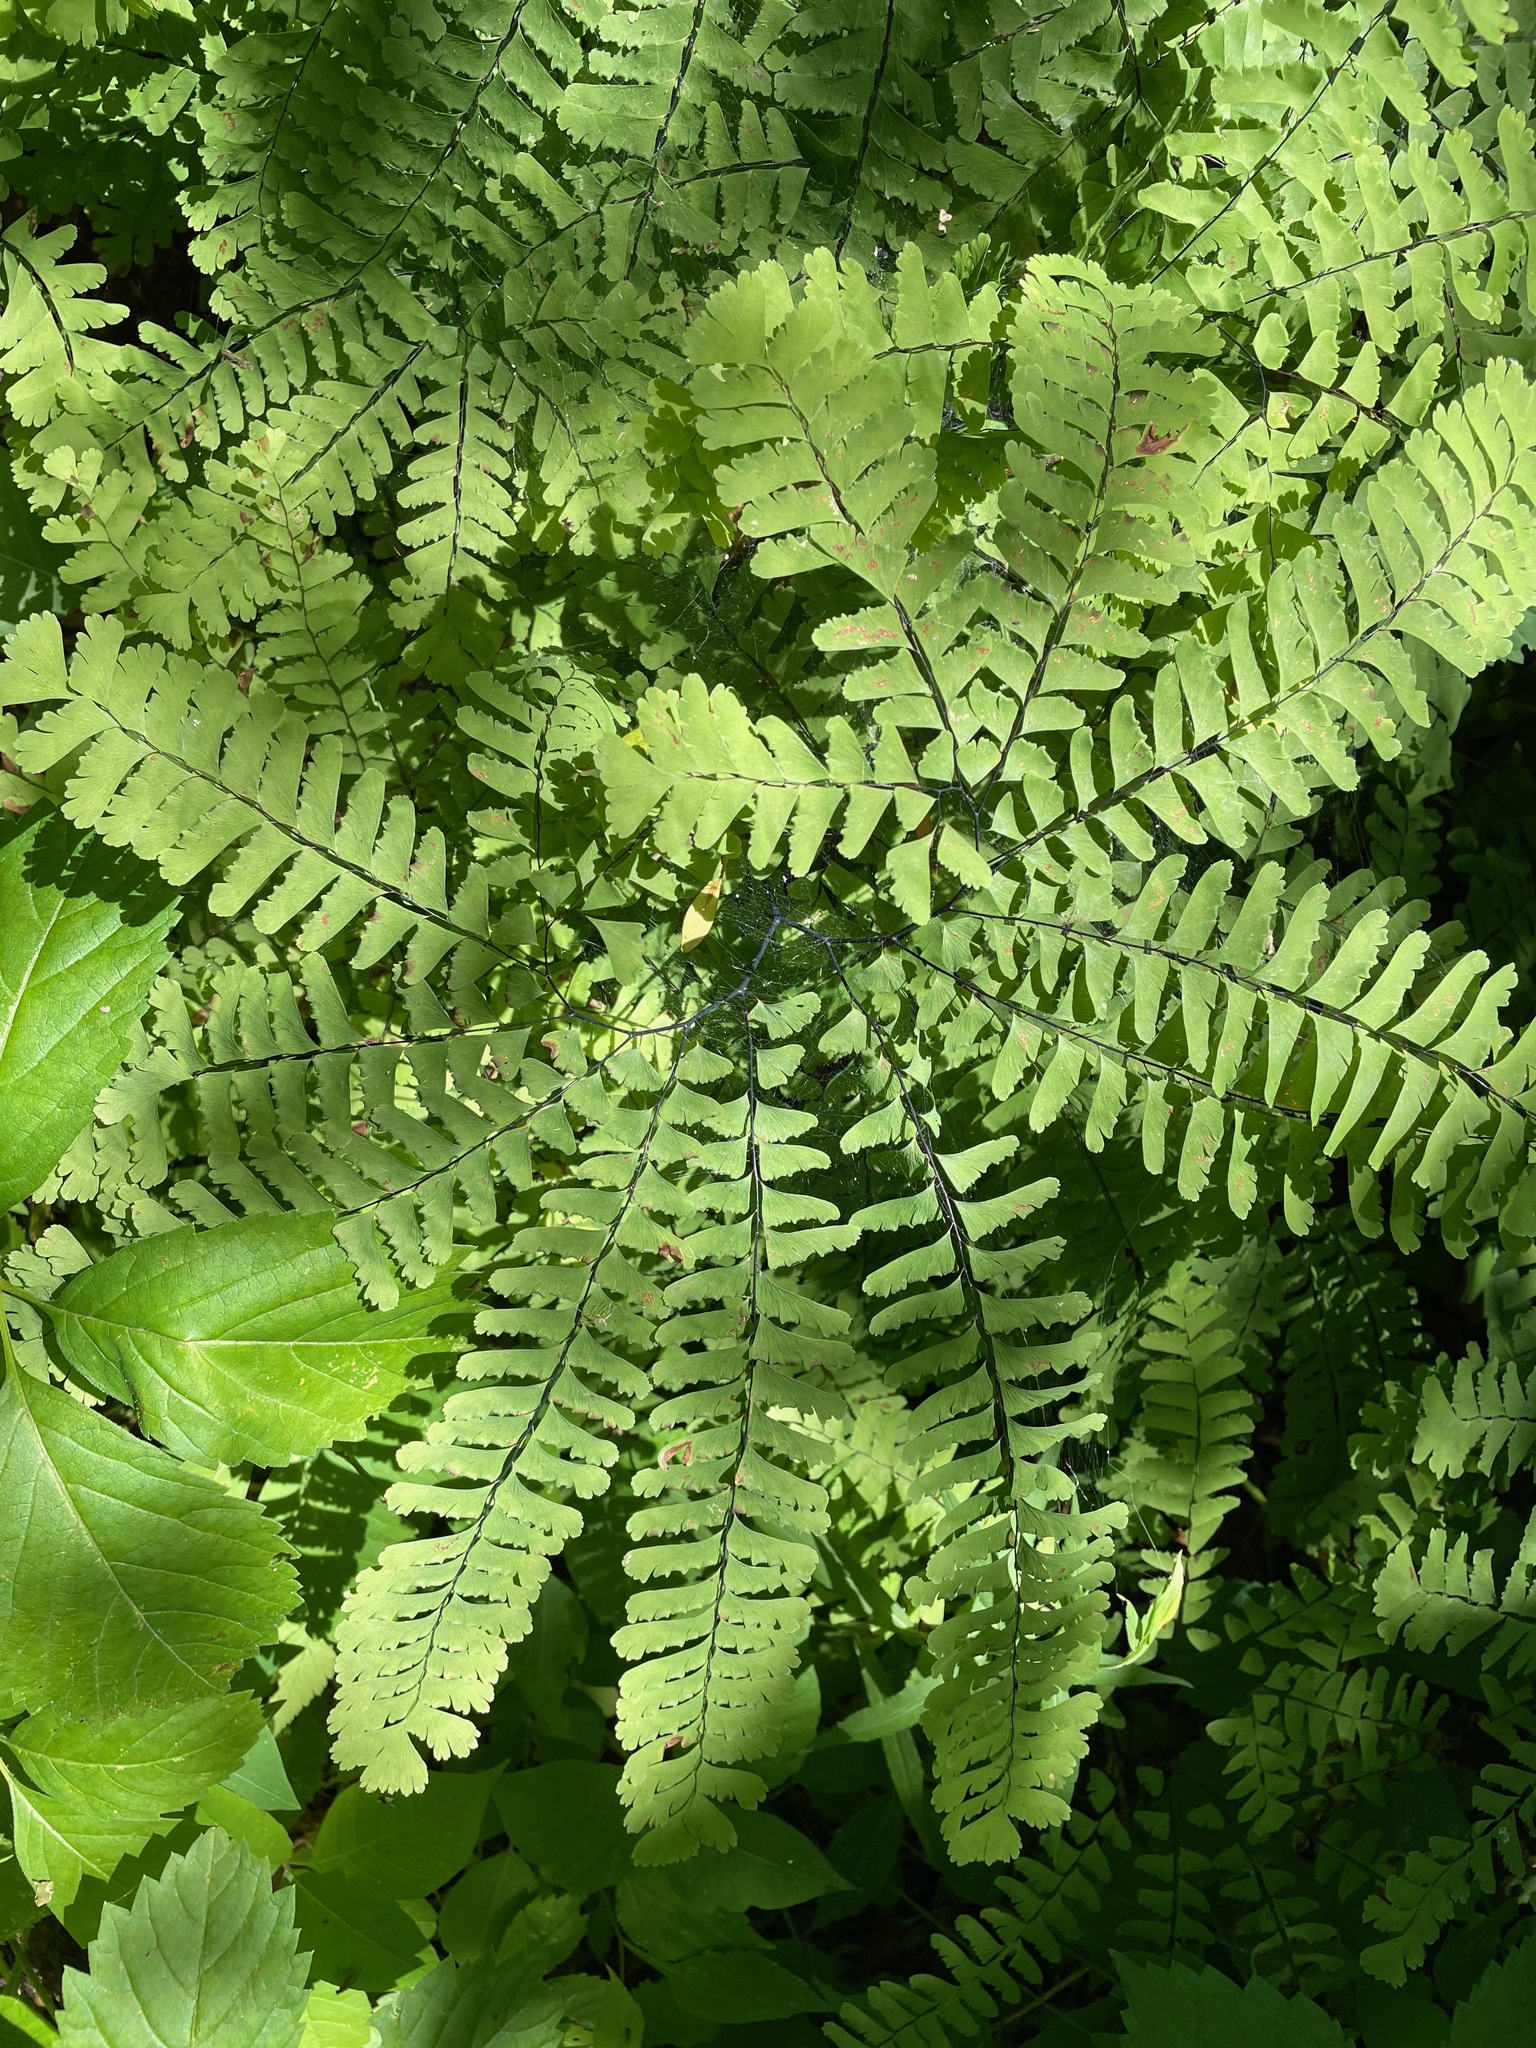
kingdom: Plantae
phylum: Tracheophyta
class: Polypodiopsida
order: Polypodiales
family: Pteridaceae
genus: Adiantum
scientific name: Adiantum pedatum
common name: Five-finger fern
